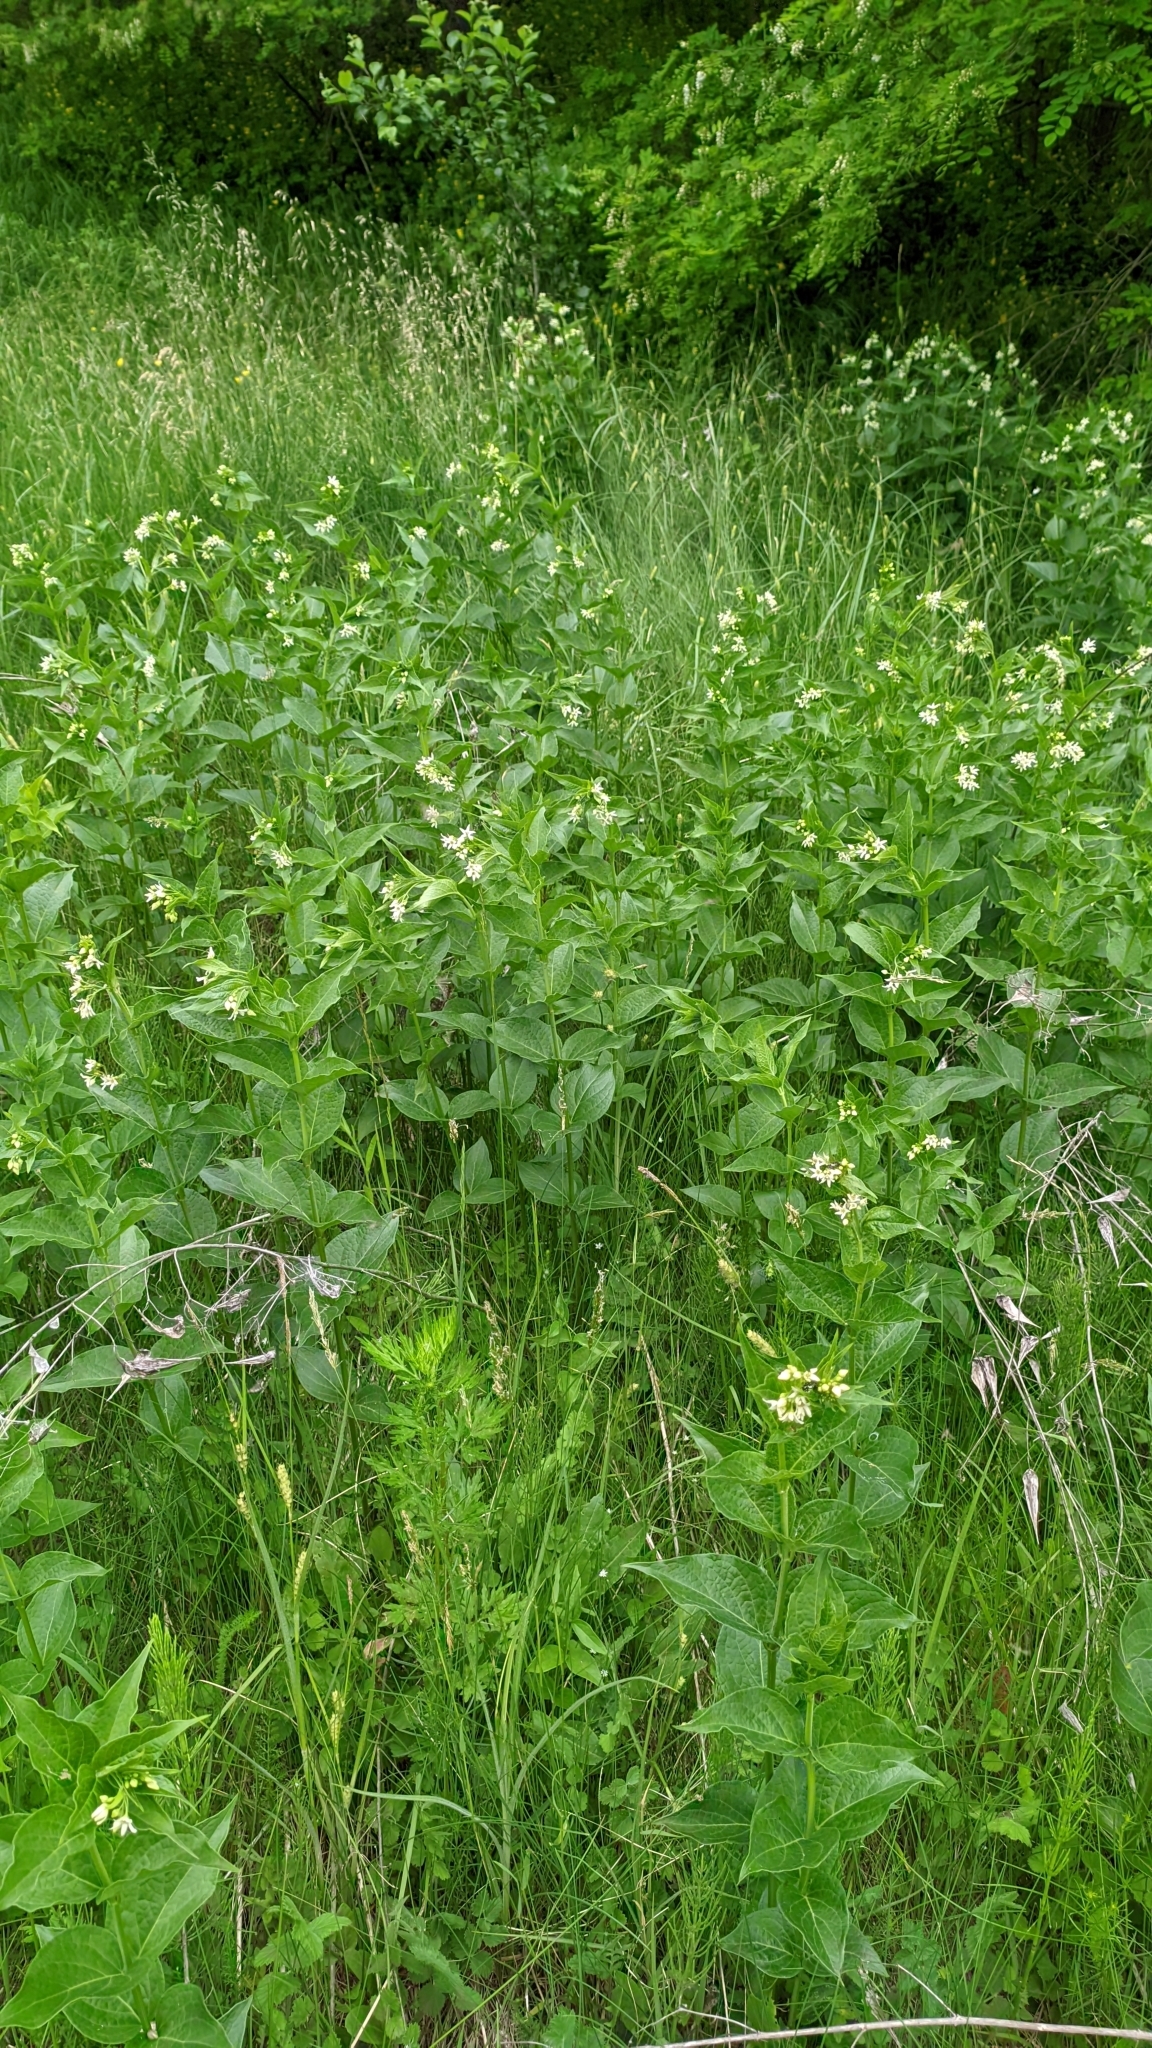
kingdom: Plantae
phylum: Tracheophyta
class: Magnoliopsida
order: Gentianales
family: Apocynaceae
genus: Vincetoxicum
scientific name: Vincetoxicum hirundinaria
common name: White swallowwort
